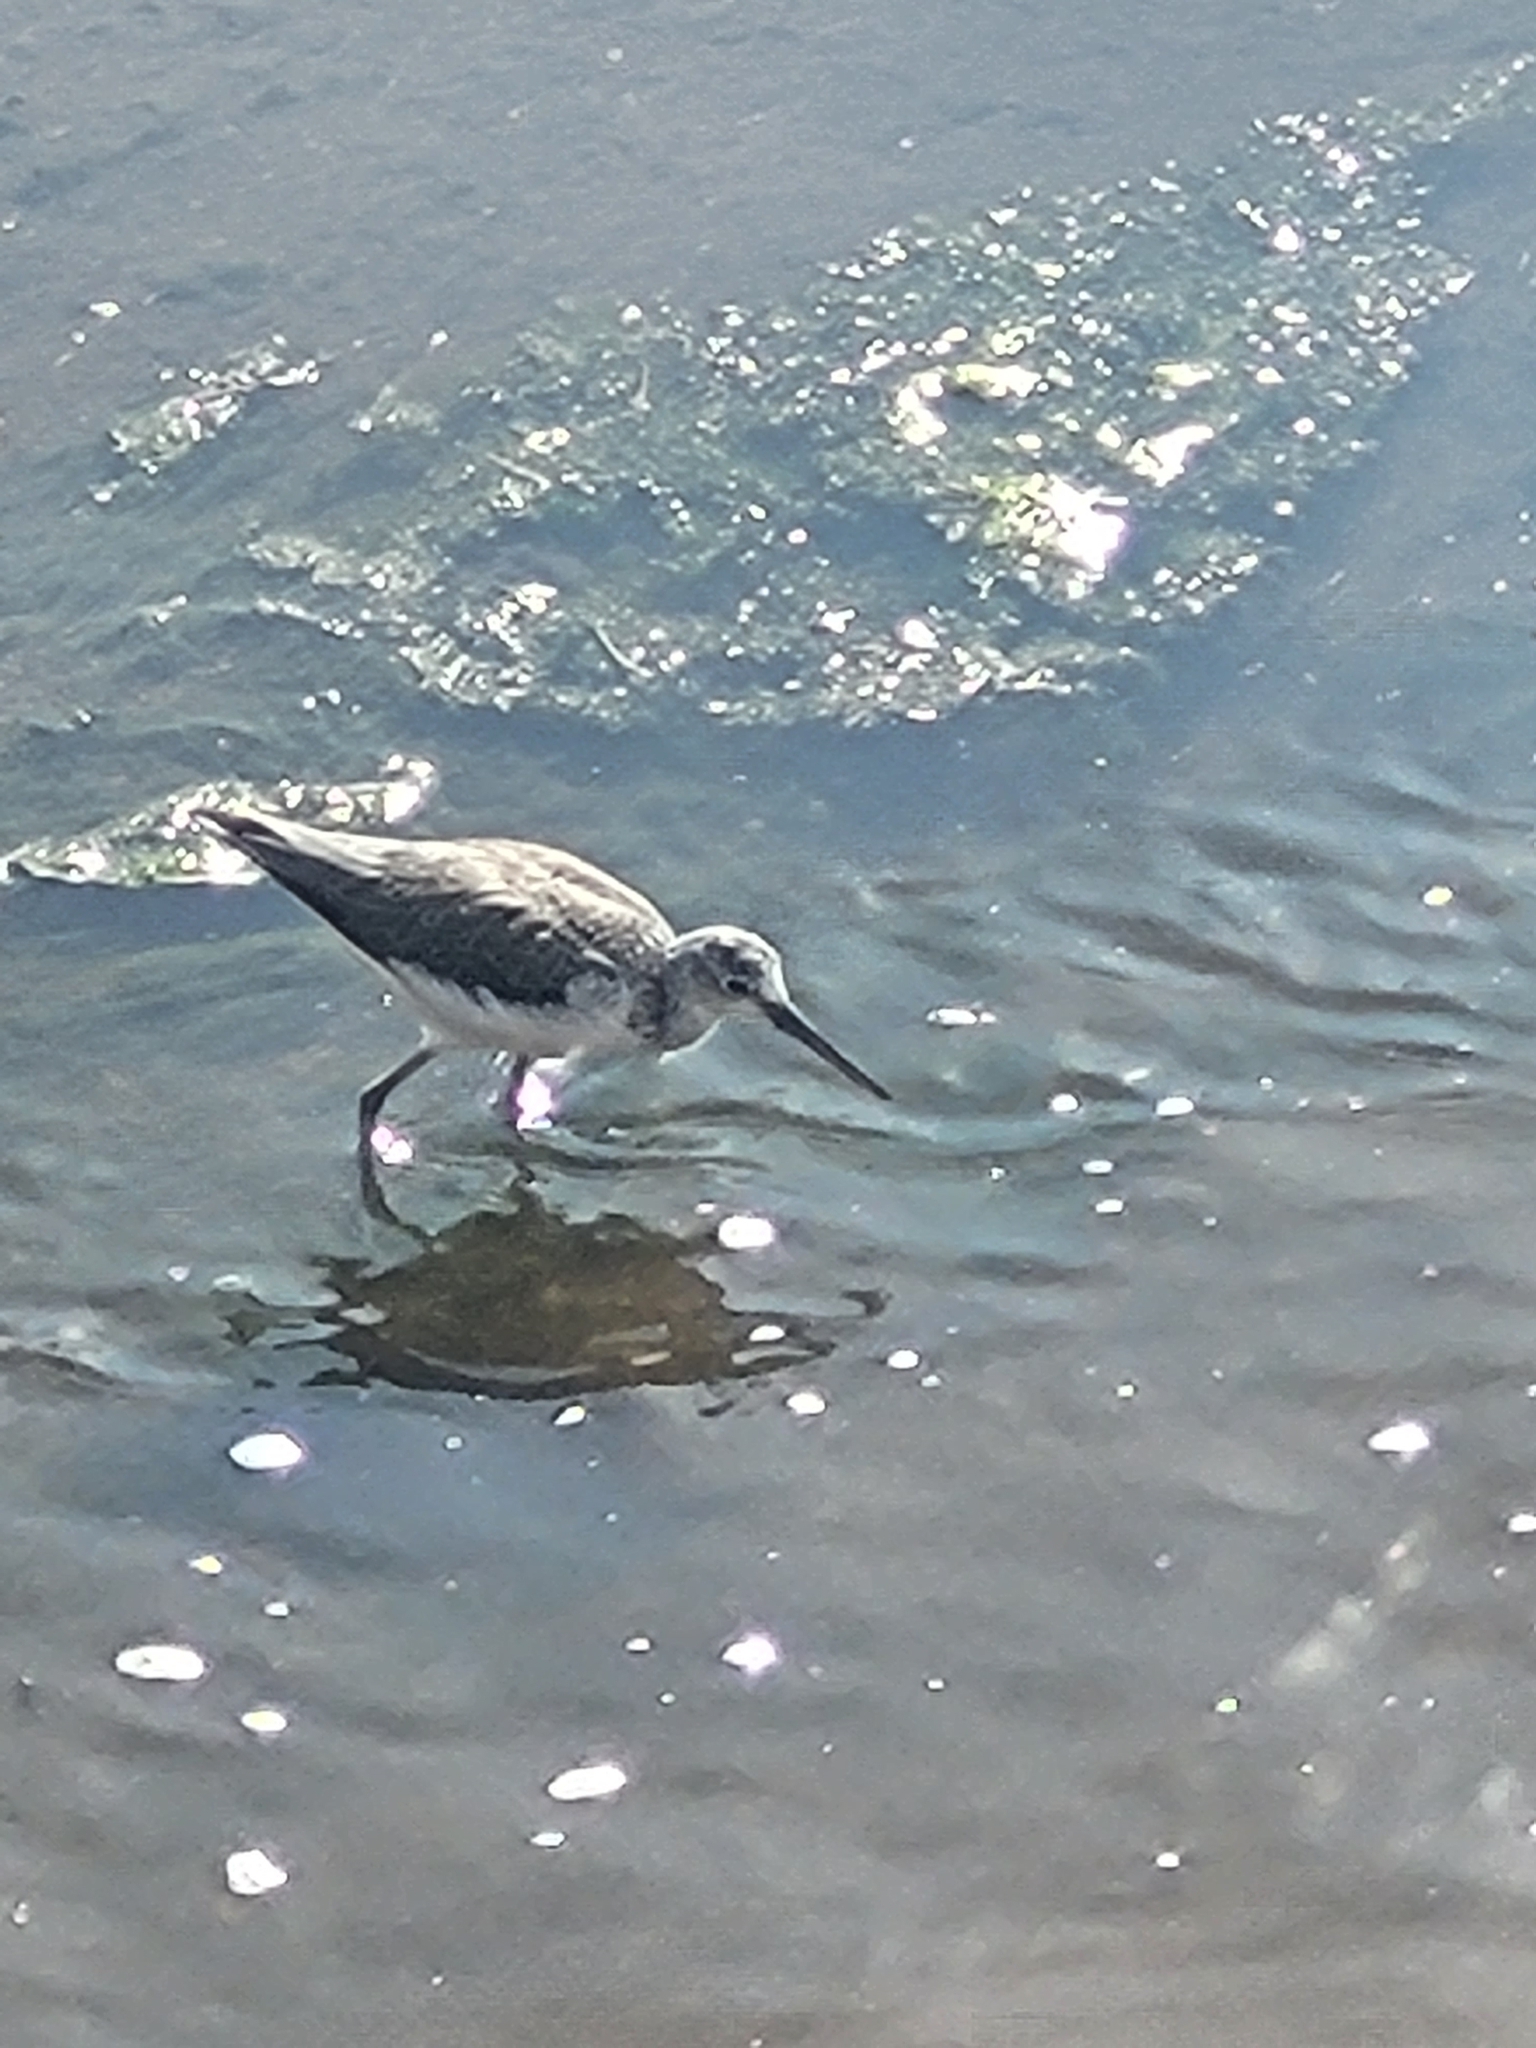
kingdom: Animalia
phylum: Chordata
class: Aves
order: Charadriiformes
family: Scolopacidae
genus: Tringa
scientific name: Tringa nebularia
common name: Common greenshank
